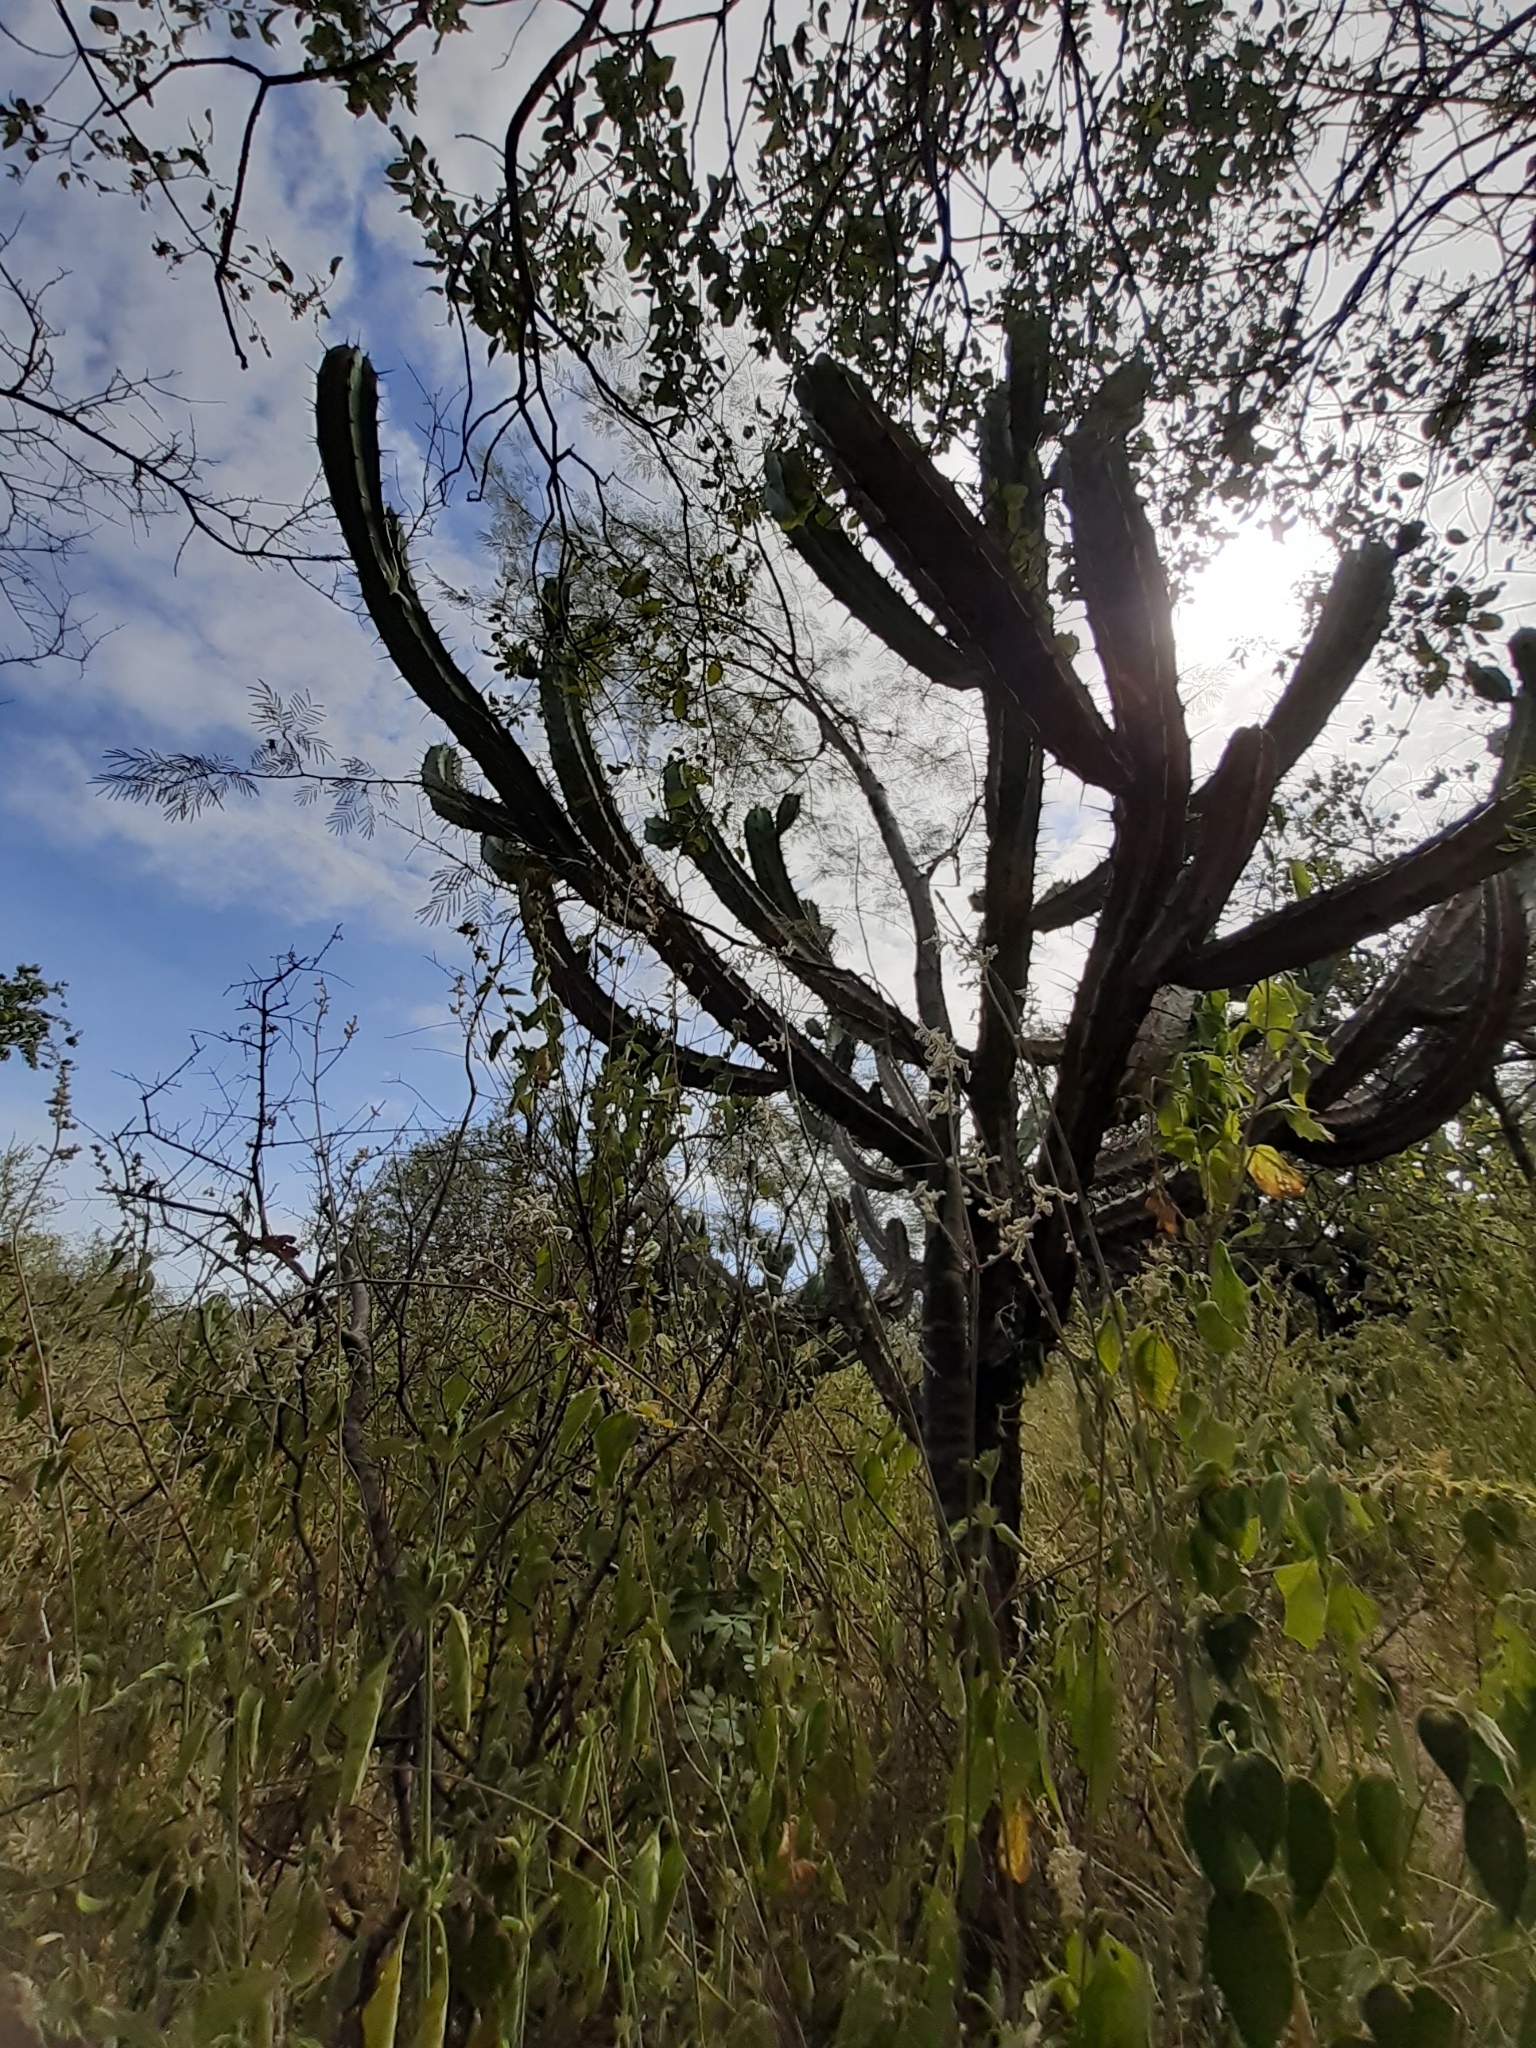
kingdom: Plantae
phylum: Tracheophyta
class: Magnoliopsida
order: Caryophyllales
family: Cactaceae
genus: Myrtillocactus
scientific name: Myrtillocactus geometrizans
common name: Bilberry cactus
